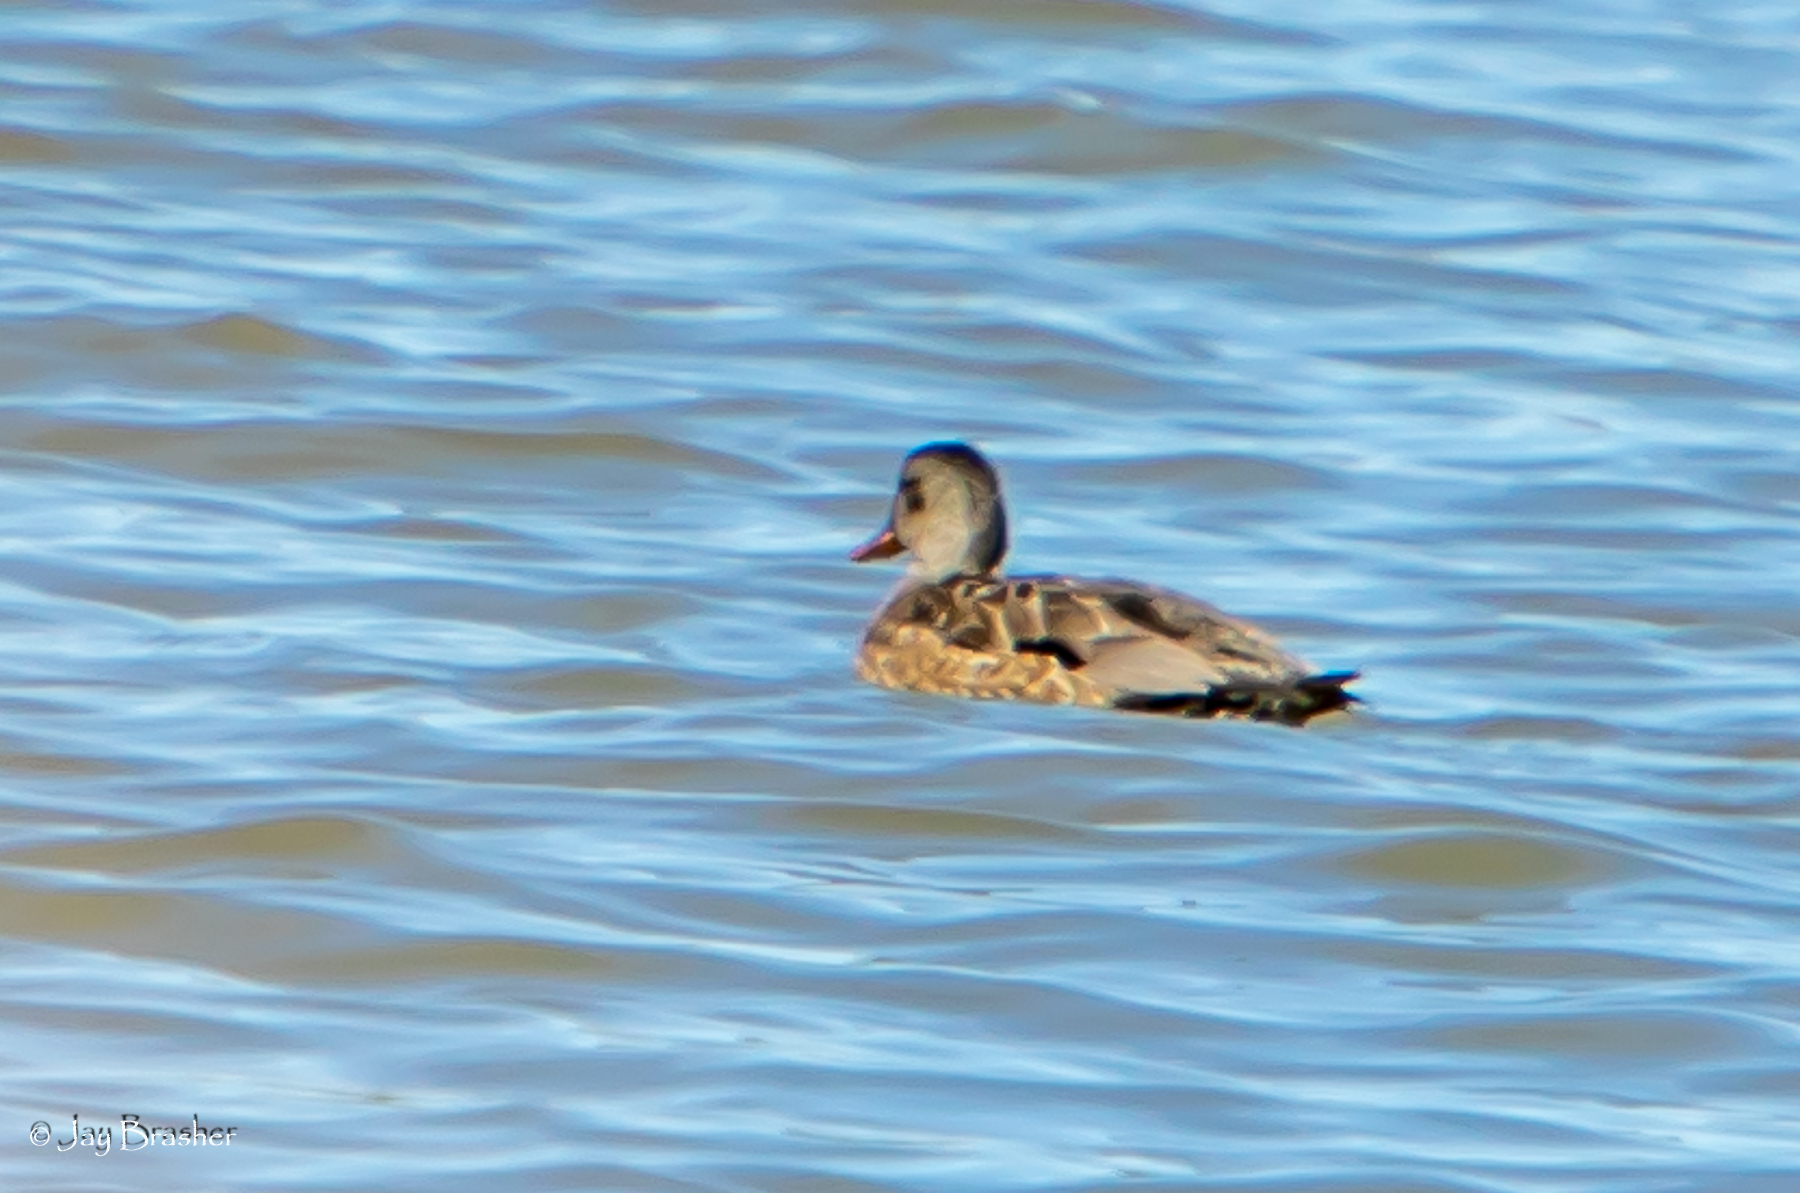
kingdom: Animalia
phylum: Chordata
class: Aves
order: Anseriformes
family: Anatidae
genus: Mareca
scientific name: Mareca strepera
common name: Gadwall
